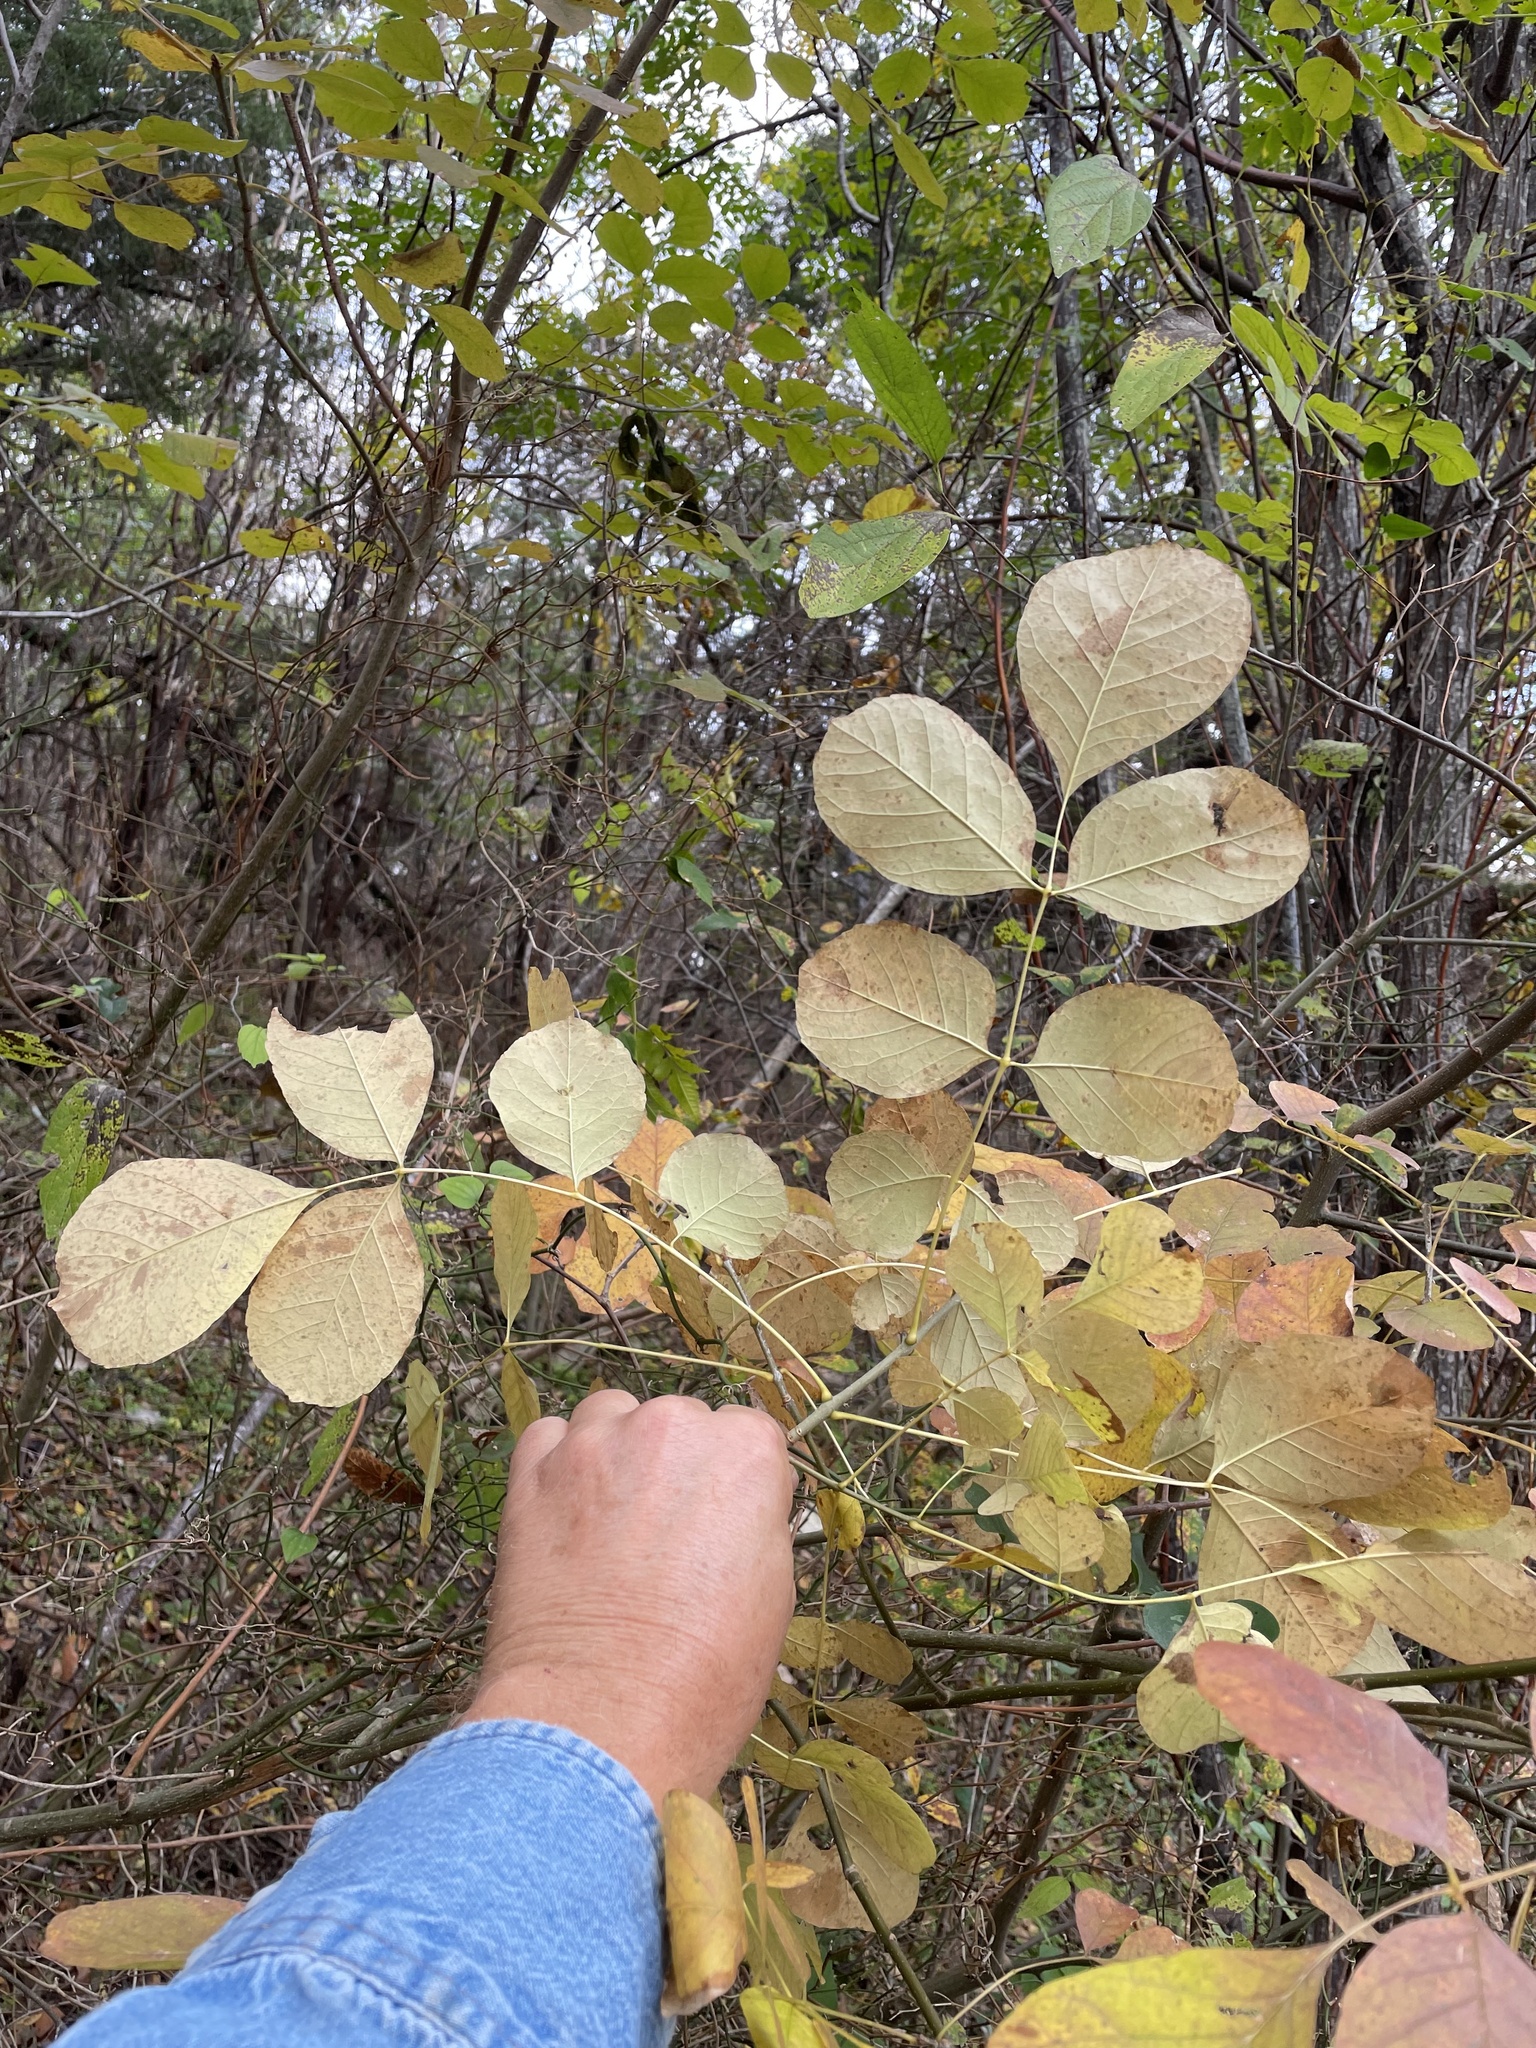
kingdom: Plantae
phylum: Tracheophyta
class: Magnoliopsida
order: Lamiales
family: Oleaceae
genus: Fraxinus
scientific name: Fraxinus albicans
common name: Texas ash
